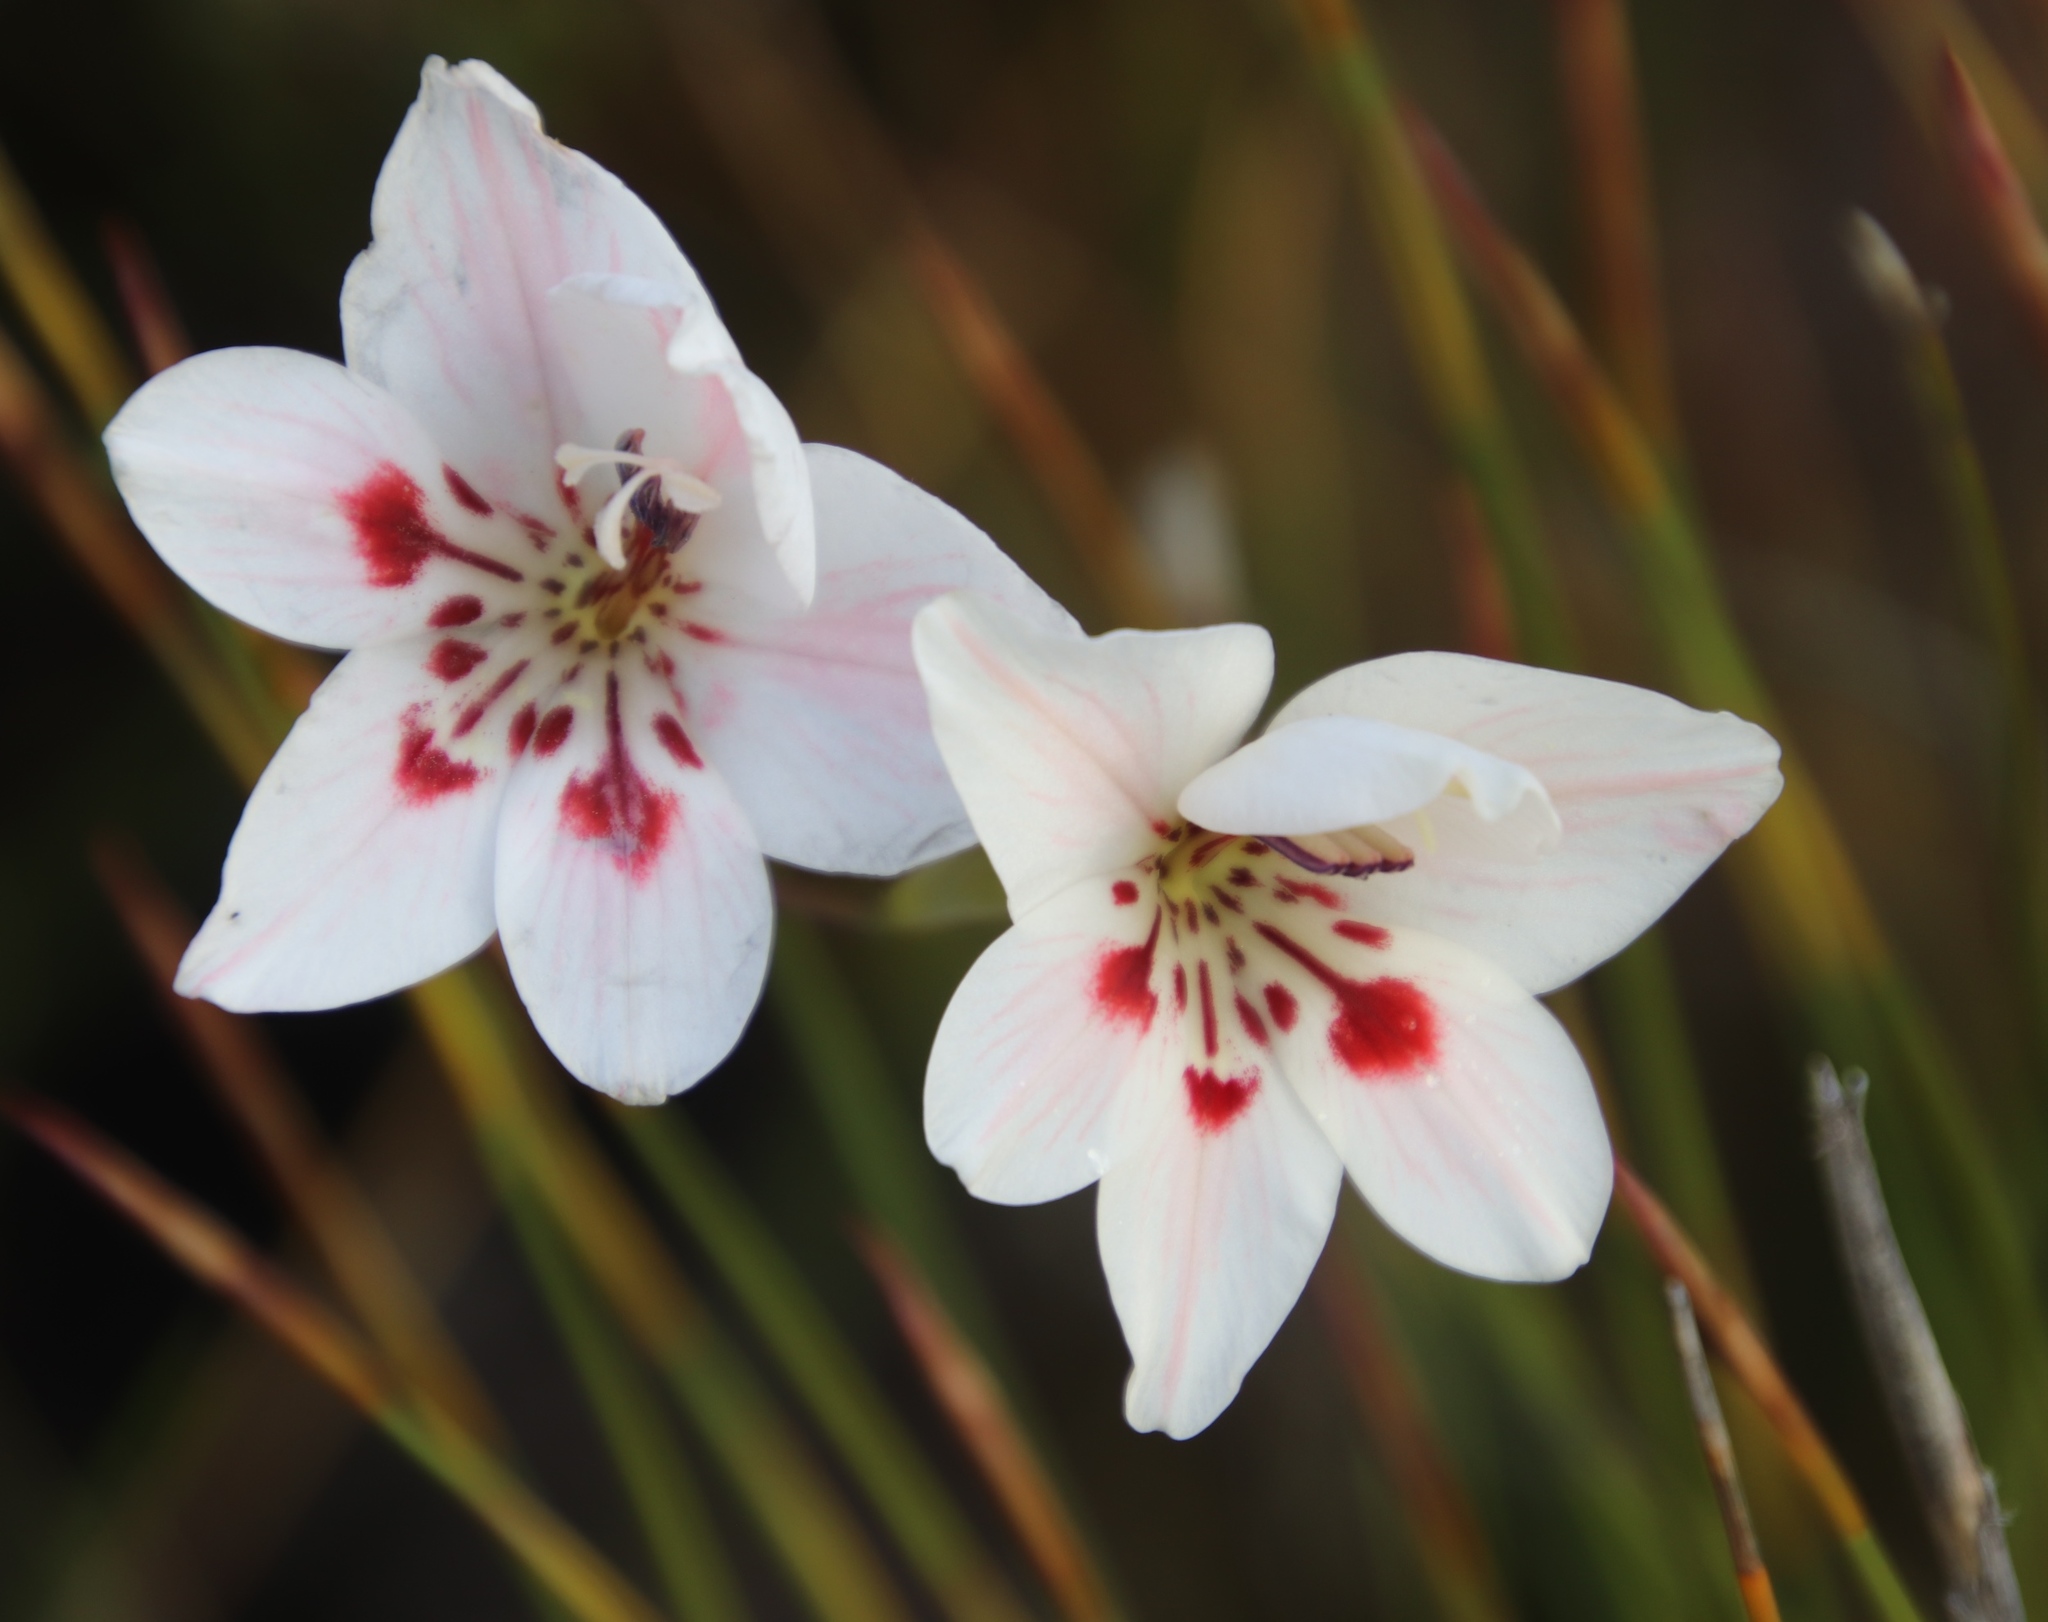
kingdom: Plantae
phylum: Tracheophyta
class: Liliopsida
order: Asparagales
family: Iridaceae
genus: Gladiolus
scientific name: Gladiolus debilis
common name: Painted-lady
